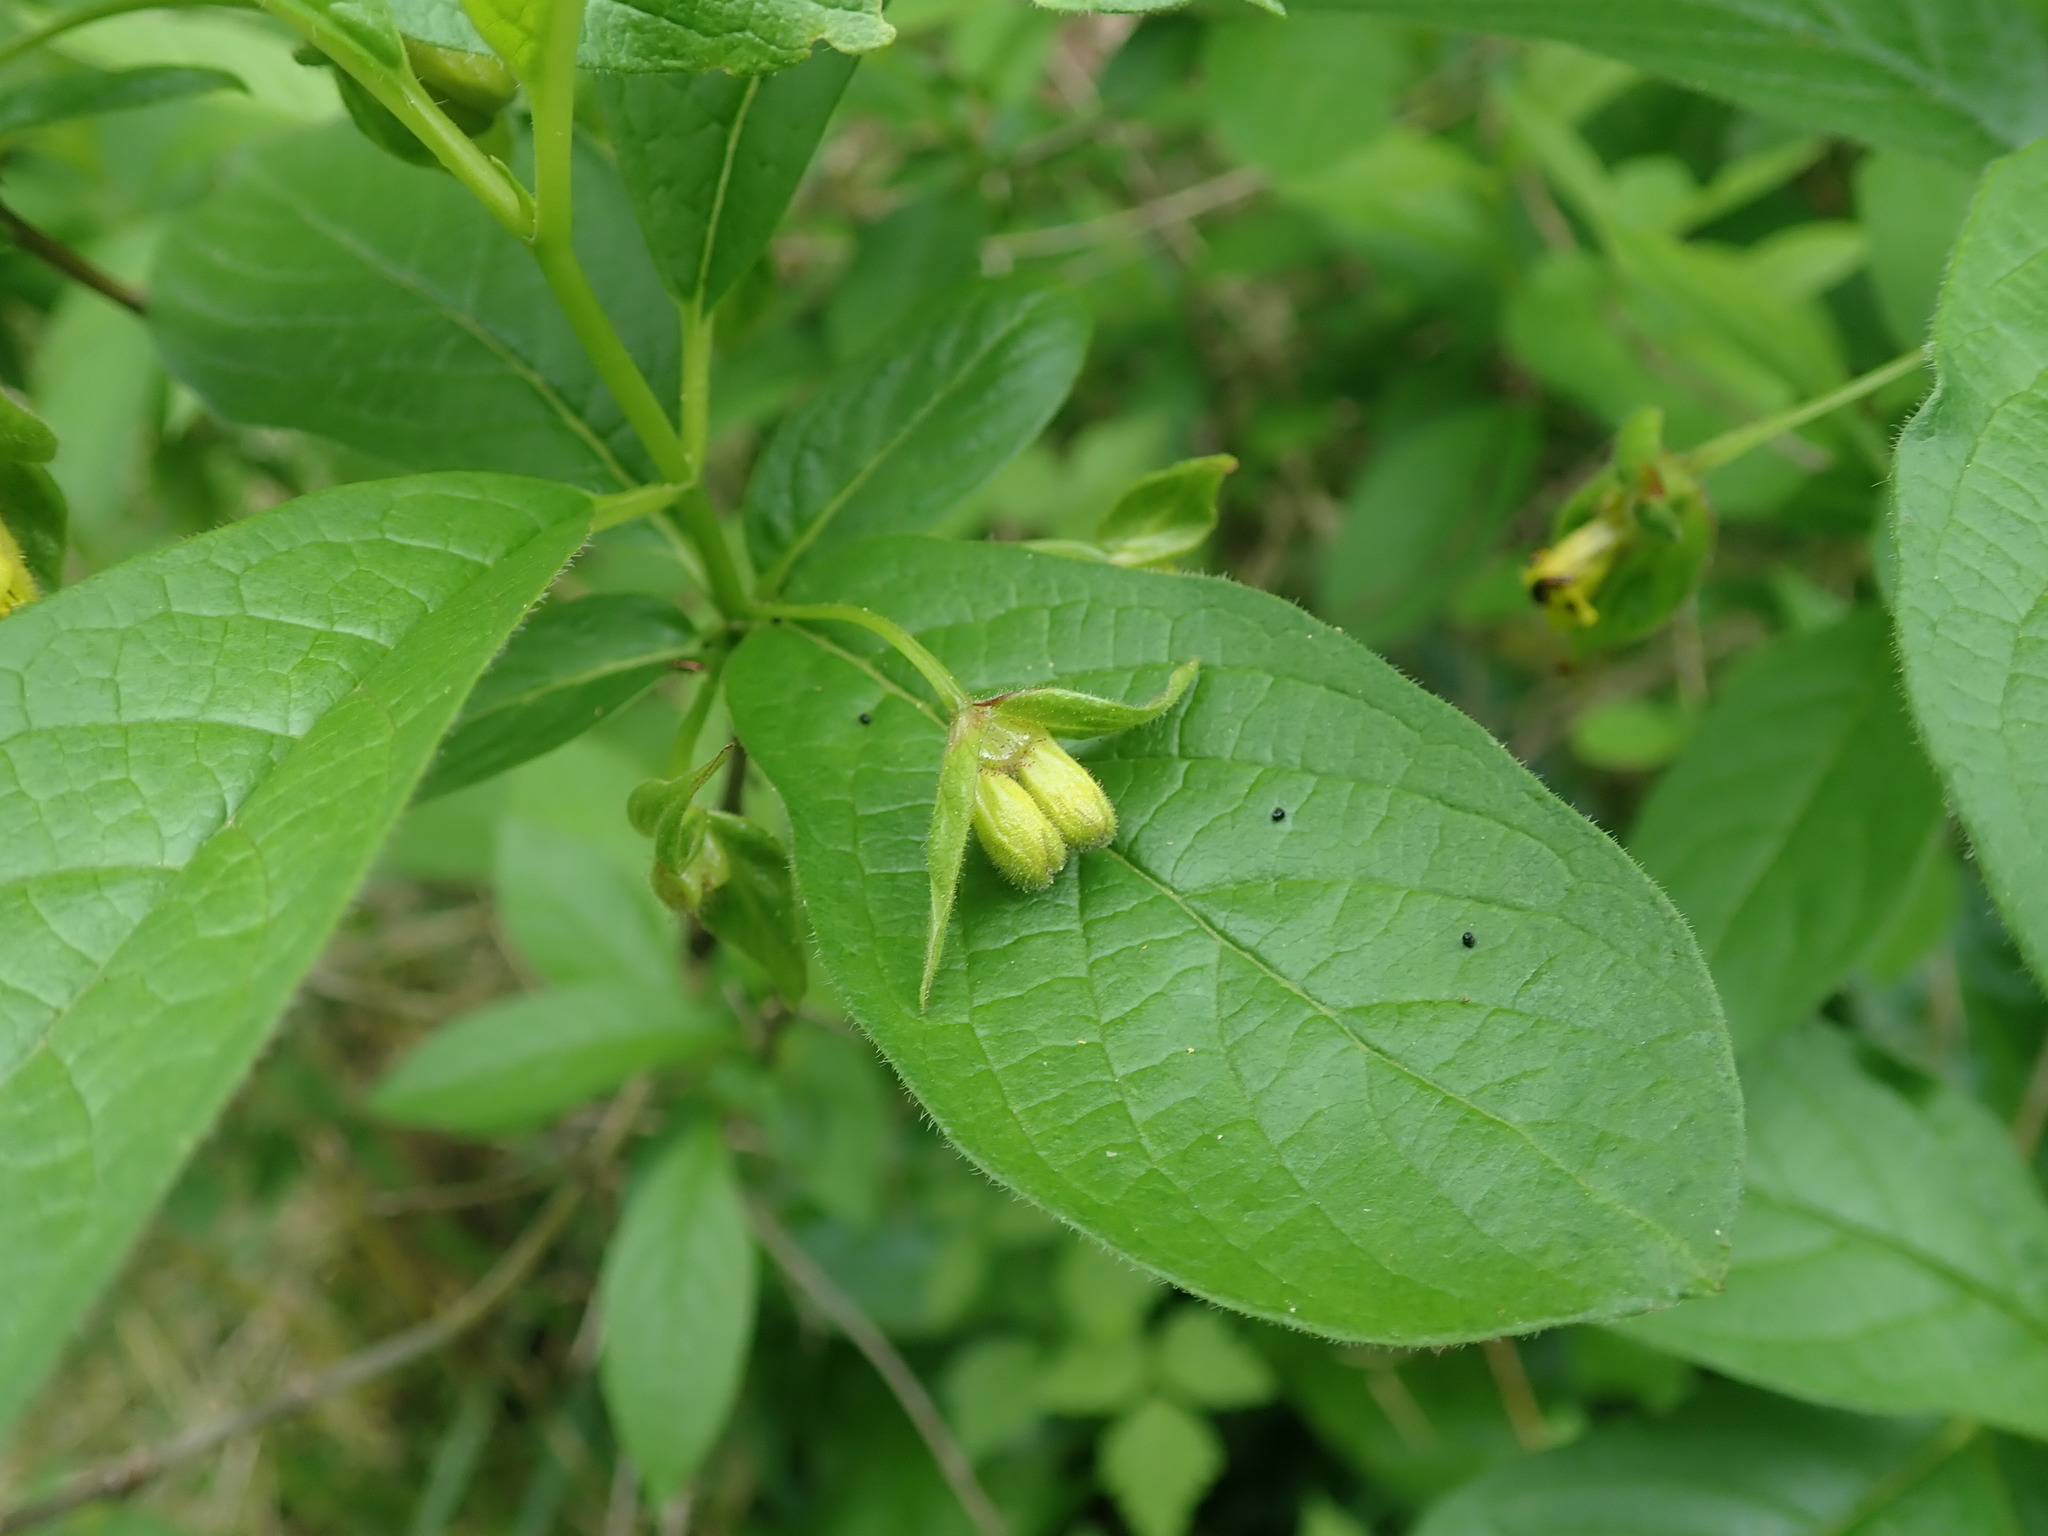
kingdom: Plantae
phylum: Tracheophyta
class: Magnoliopsida
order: Dipsacales
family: Caprifoliaceae
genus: Lonicera
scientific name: Lonicera involucrata
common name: Californian honeysuckle
